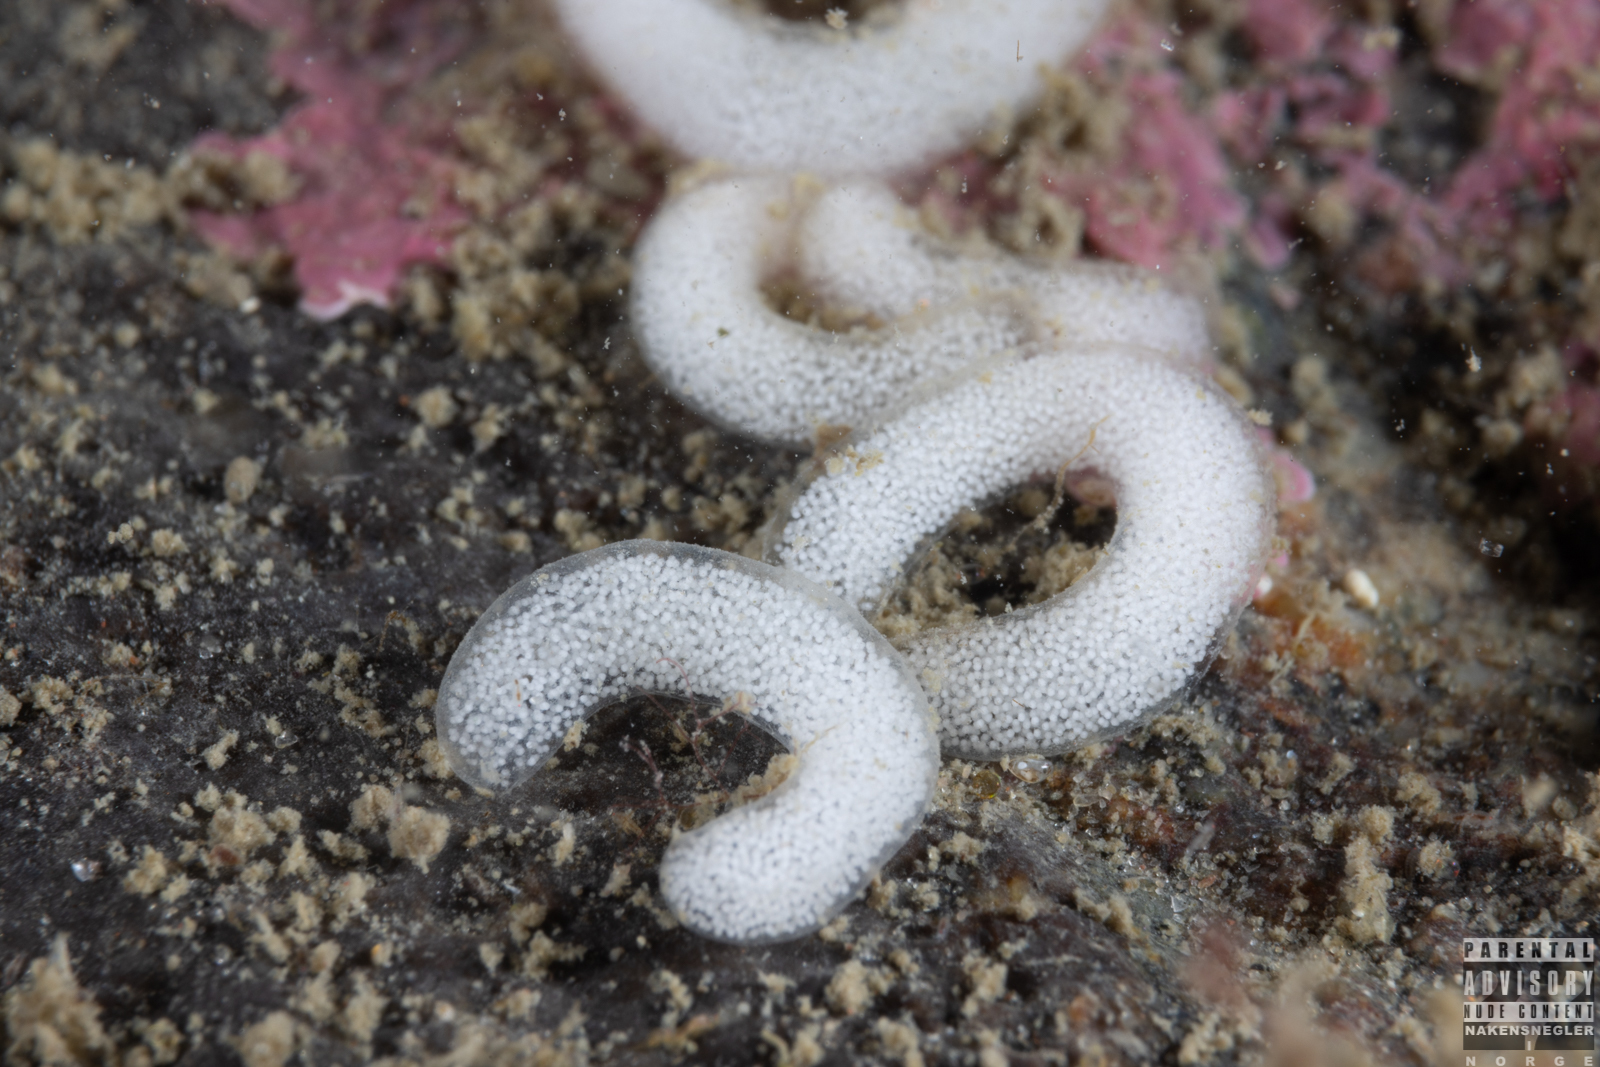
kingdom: Animalia
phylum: Mollusca
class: Gastropoda
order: Nudibranchia
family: Goniodorididae
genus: Okenia
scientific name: Okenia
